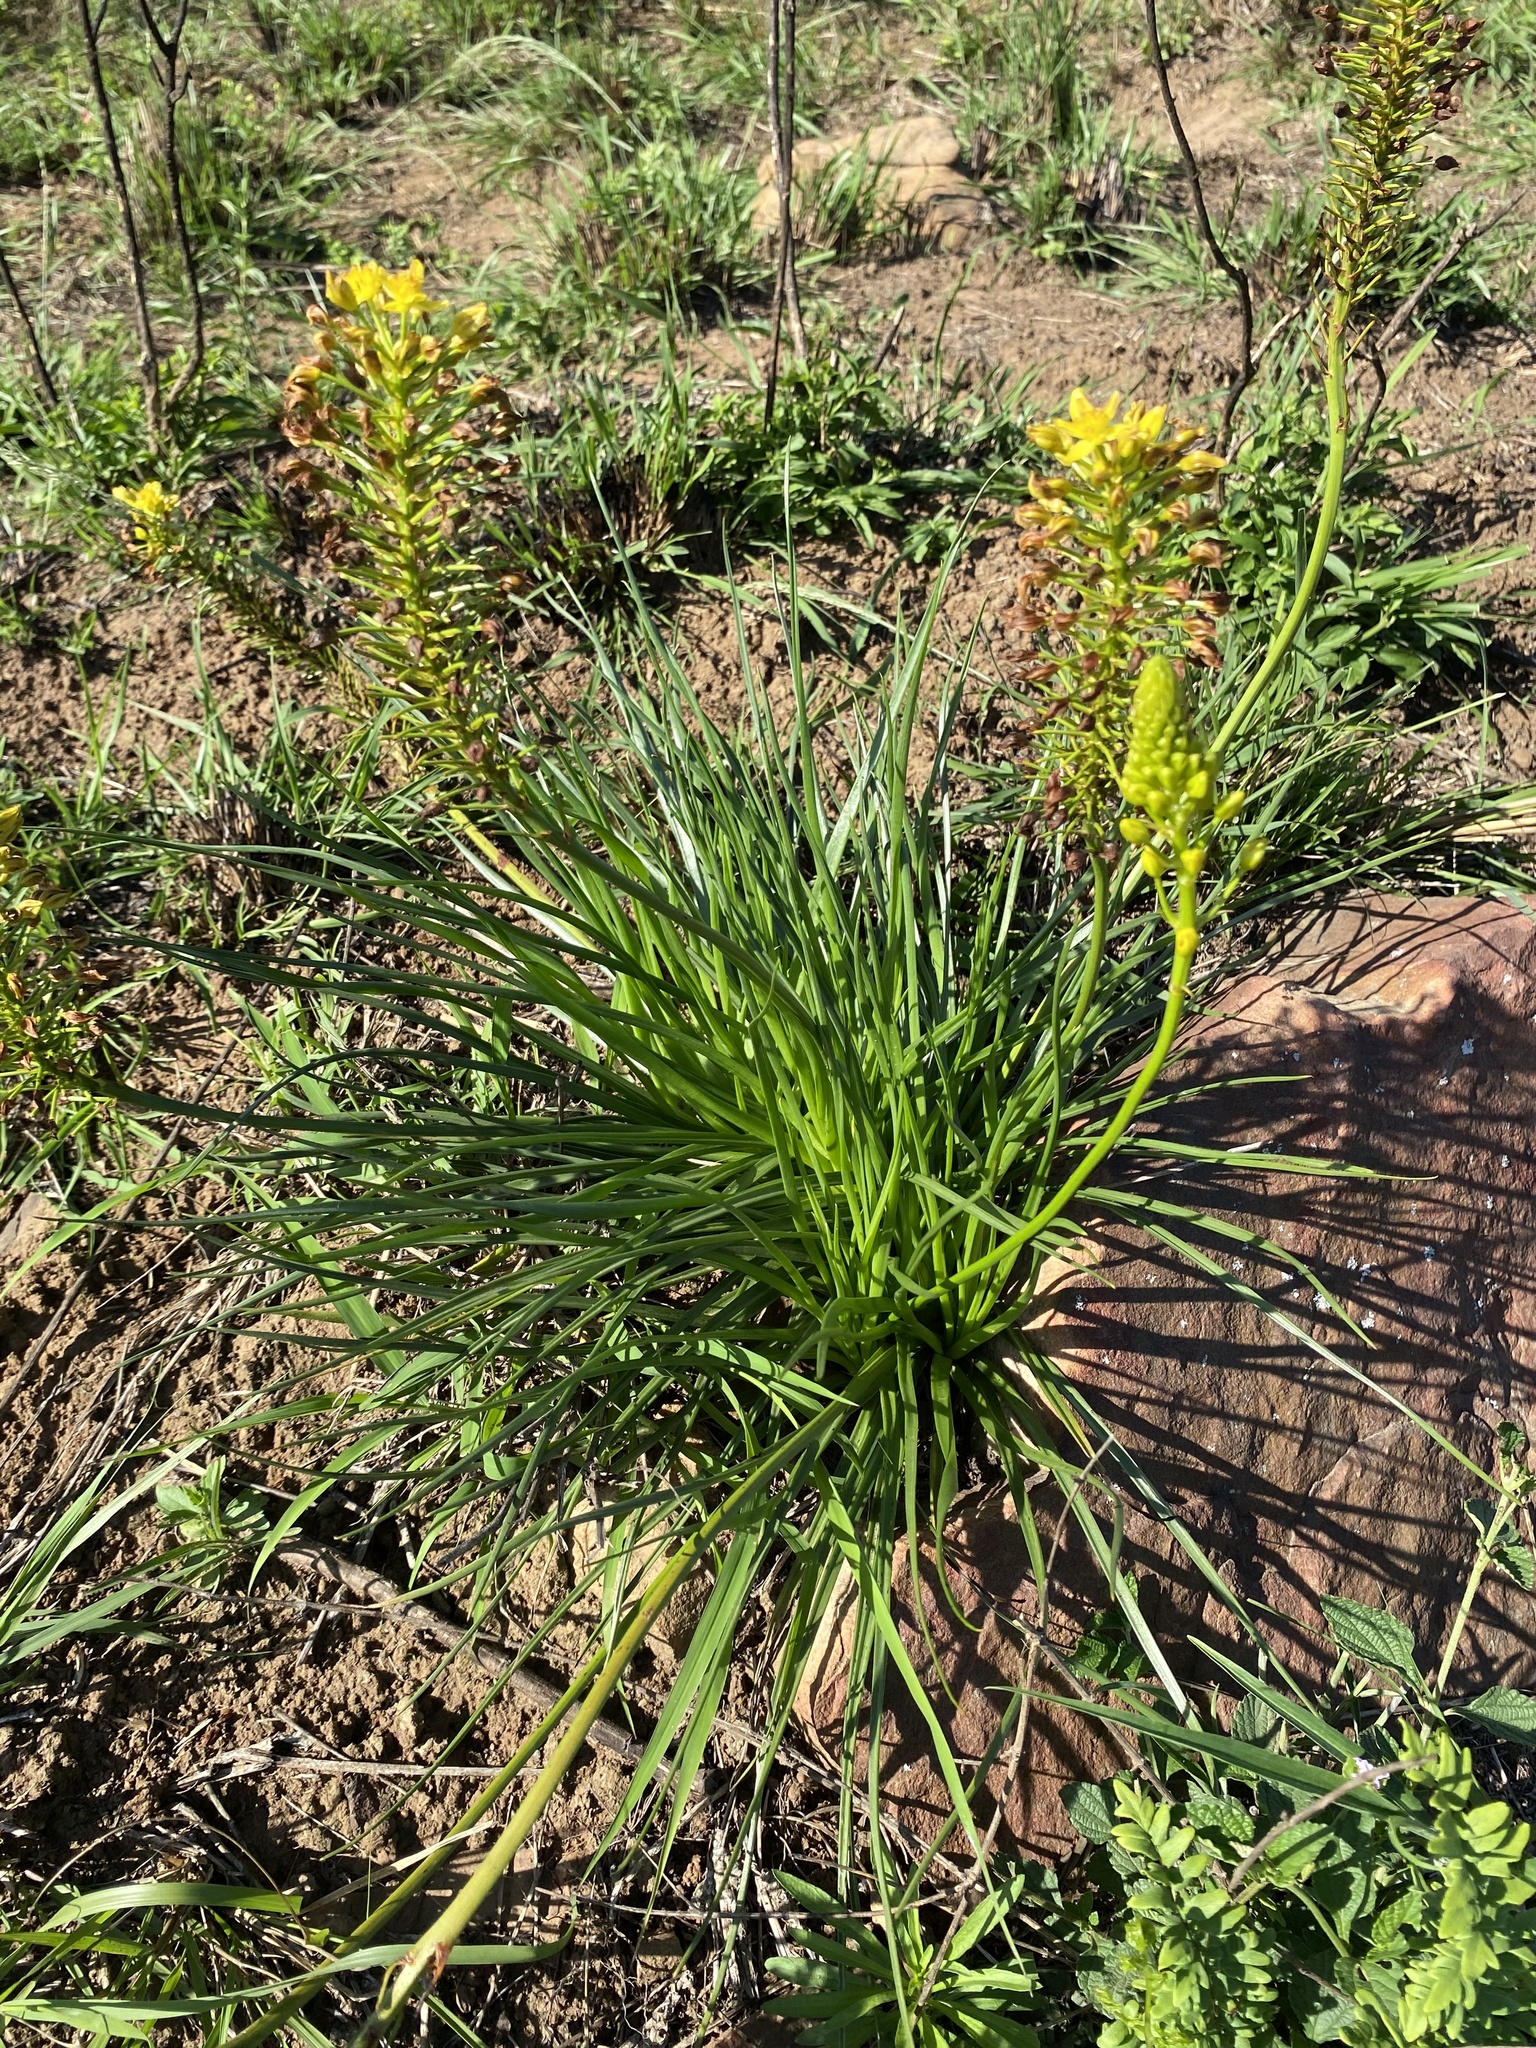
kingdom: Plantae
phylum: Tracheophyta
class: Liliopsida
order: Asparagales
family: Asphodelaceae
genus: Bulbine
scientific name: Bulbine abyssinica
